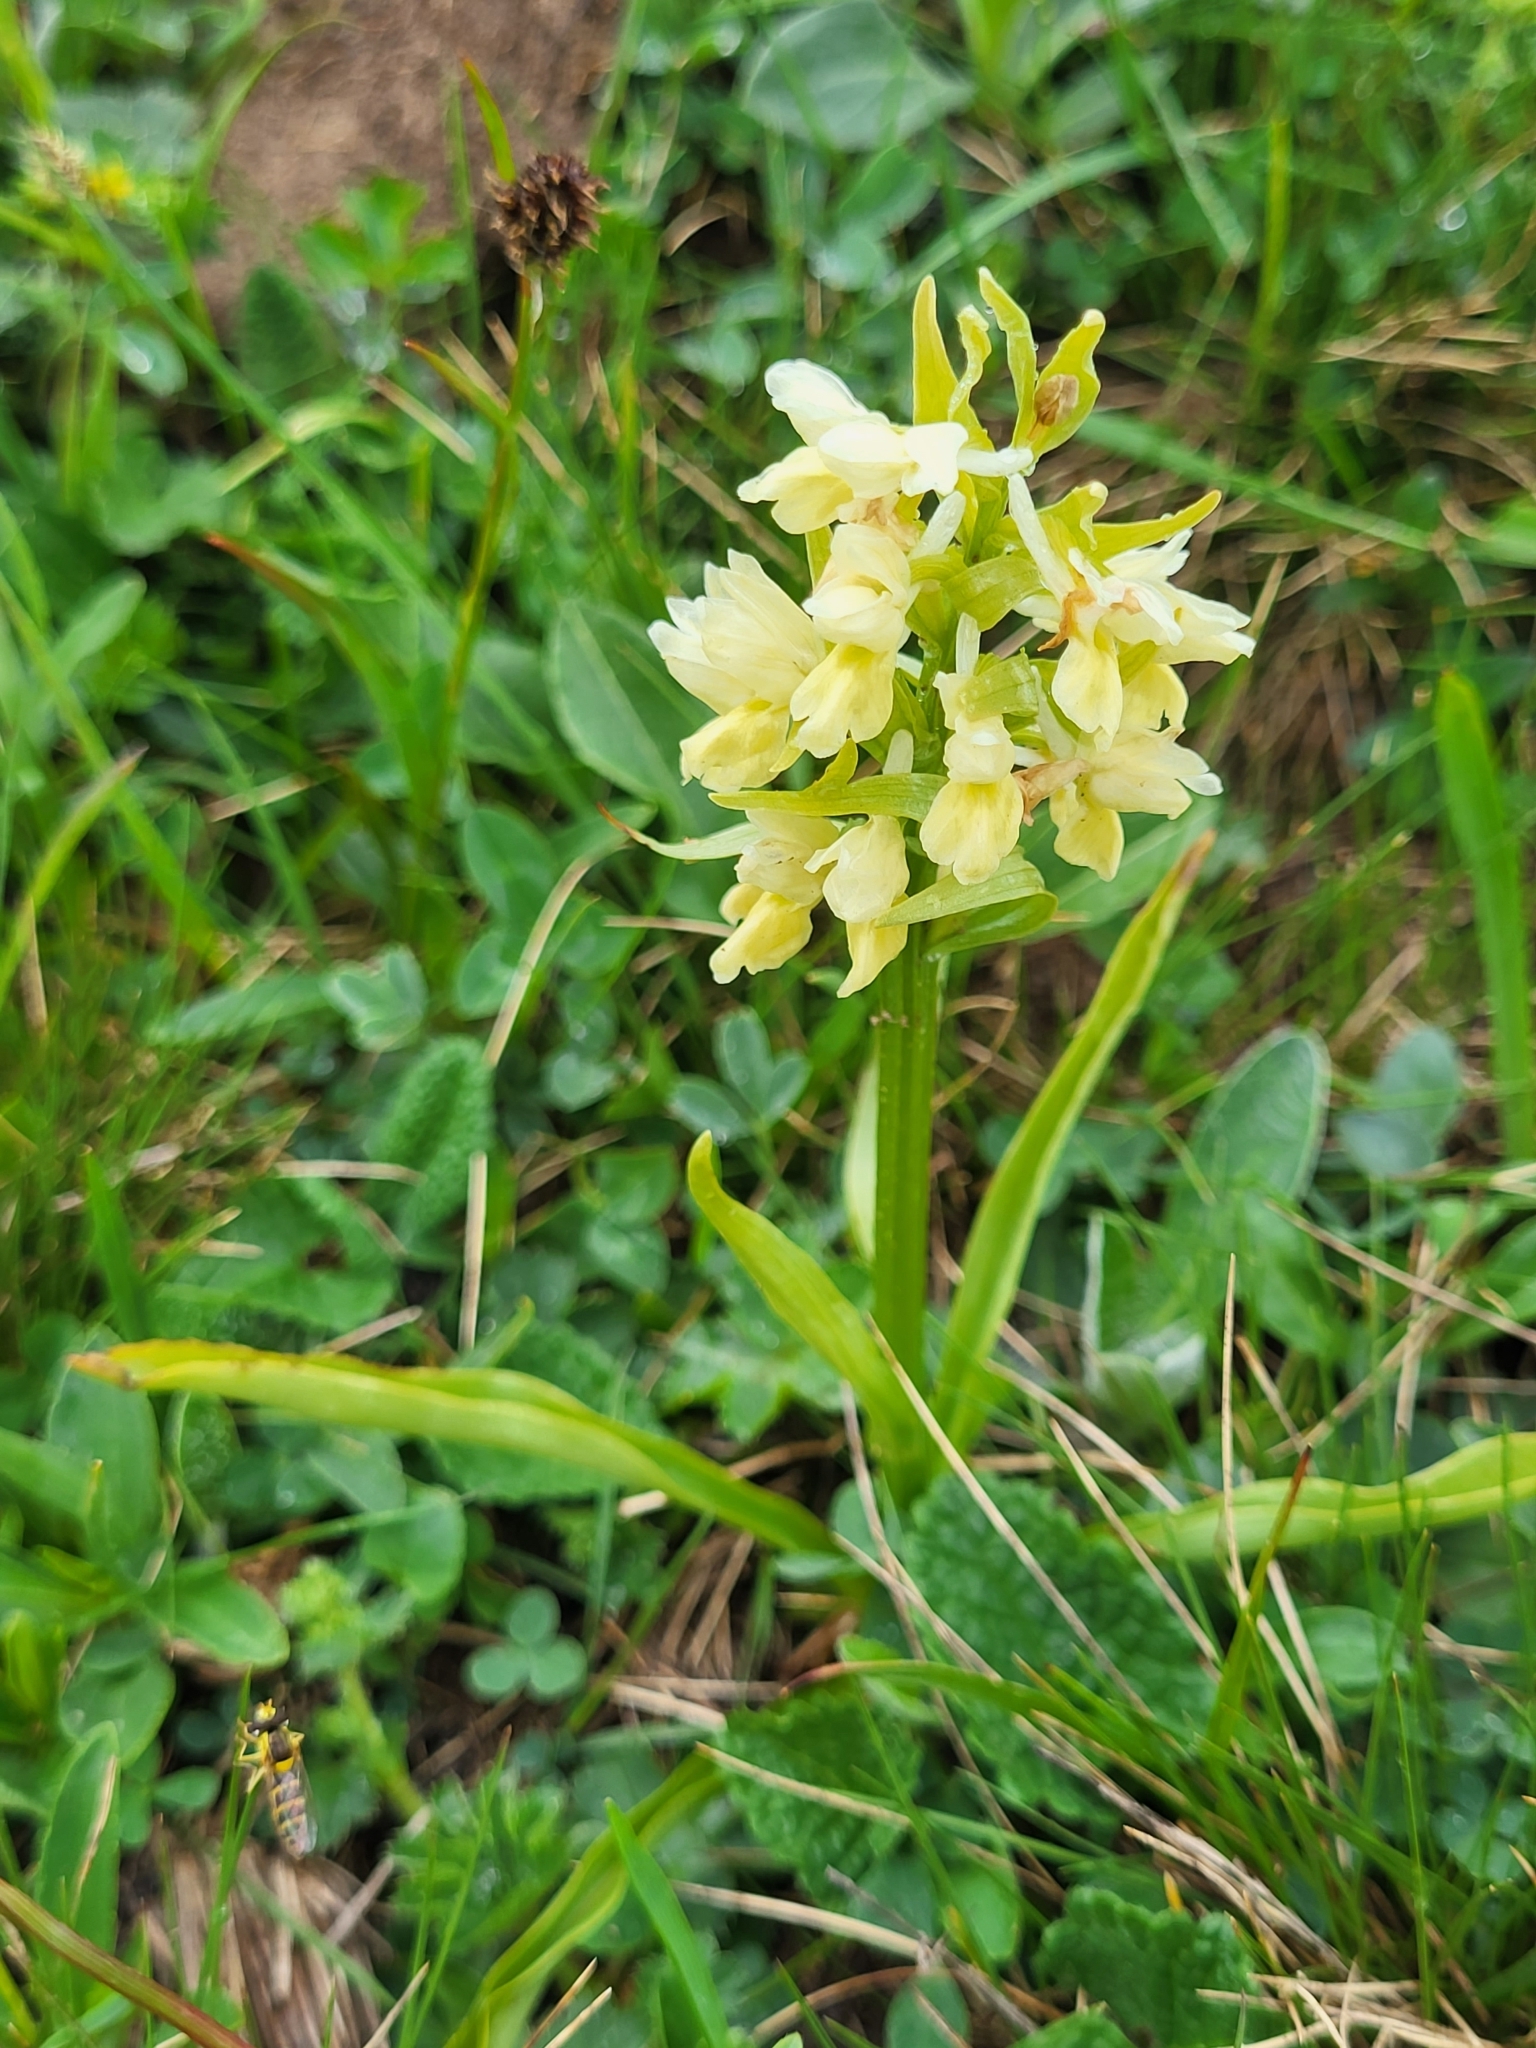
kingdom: Plantae
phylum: Tracheophyta
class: Liliopsida
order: Asparagales
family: Orchidaceae
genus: Dactylorhiza
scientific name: Dactylorhiza romana
